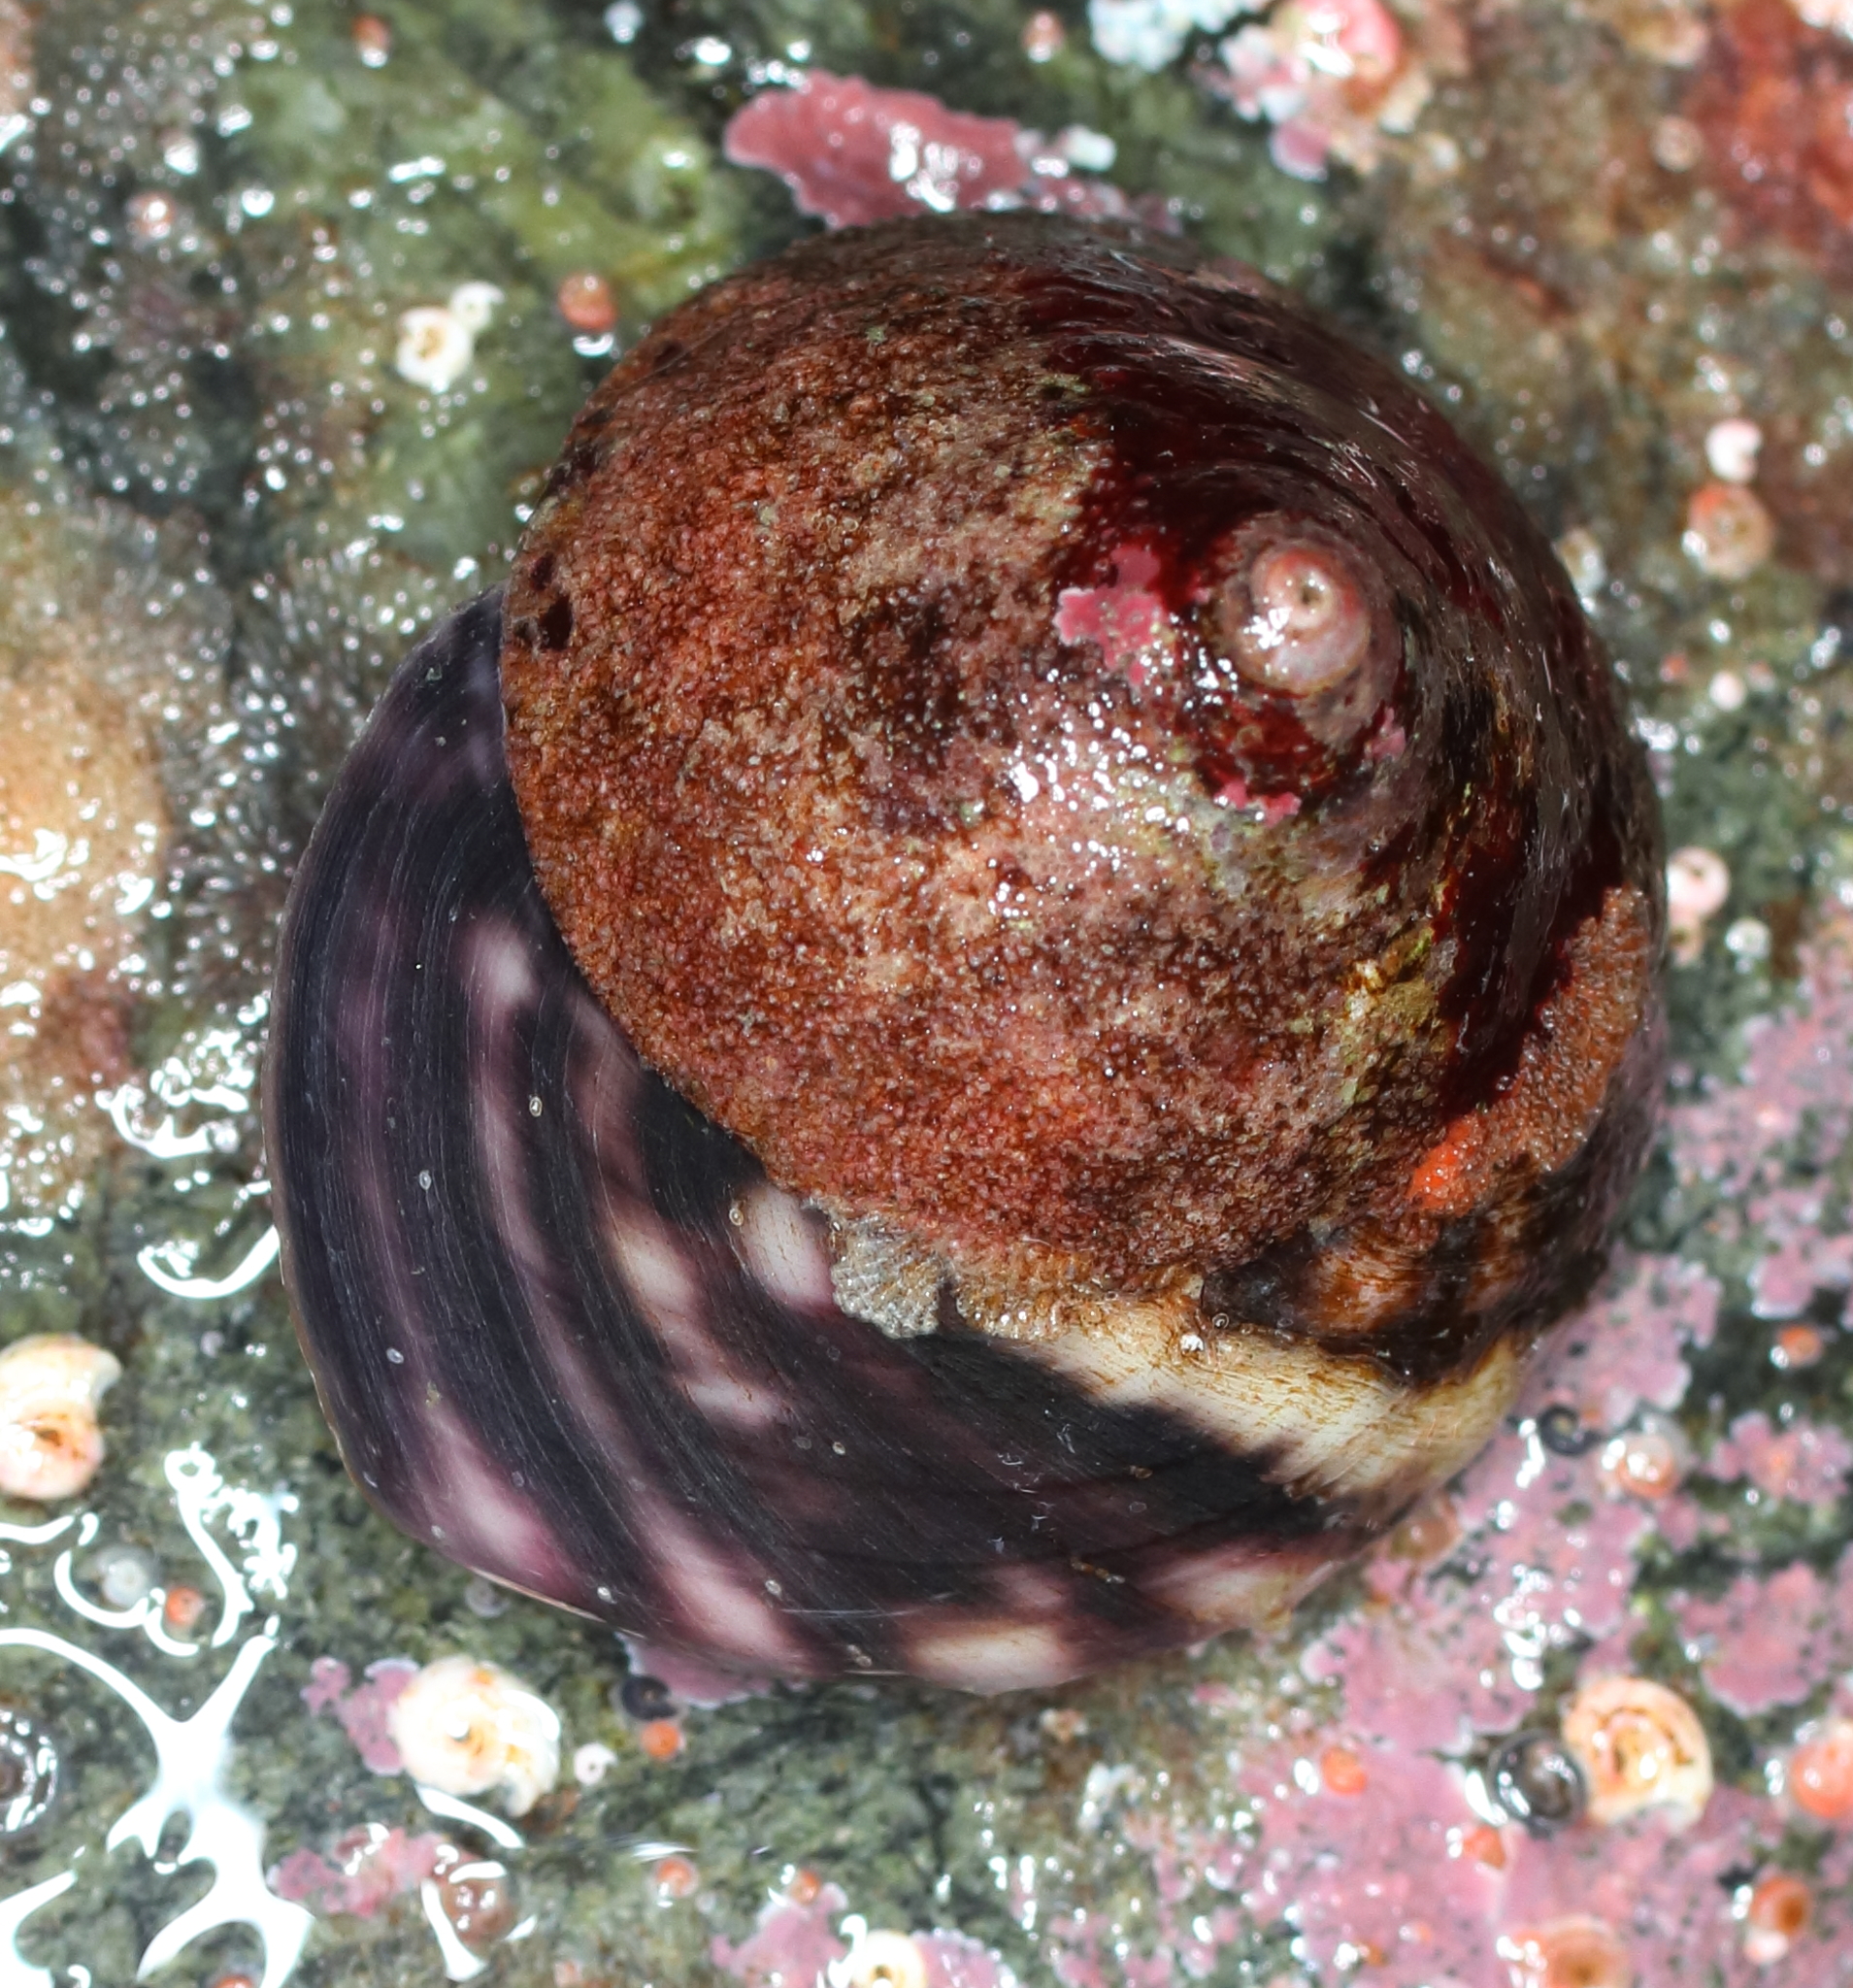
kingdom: Animalia
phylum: Mollusca
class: Gastropoda
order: Trochida
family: Tegulidae
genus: Tegula
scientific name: Tegula pulligo
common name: Brown turban
